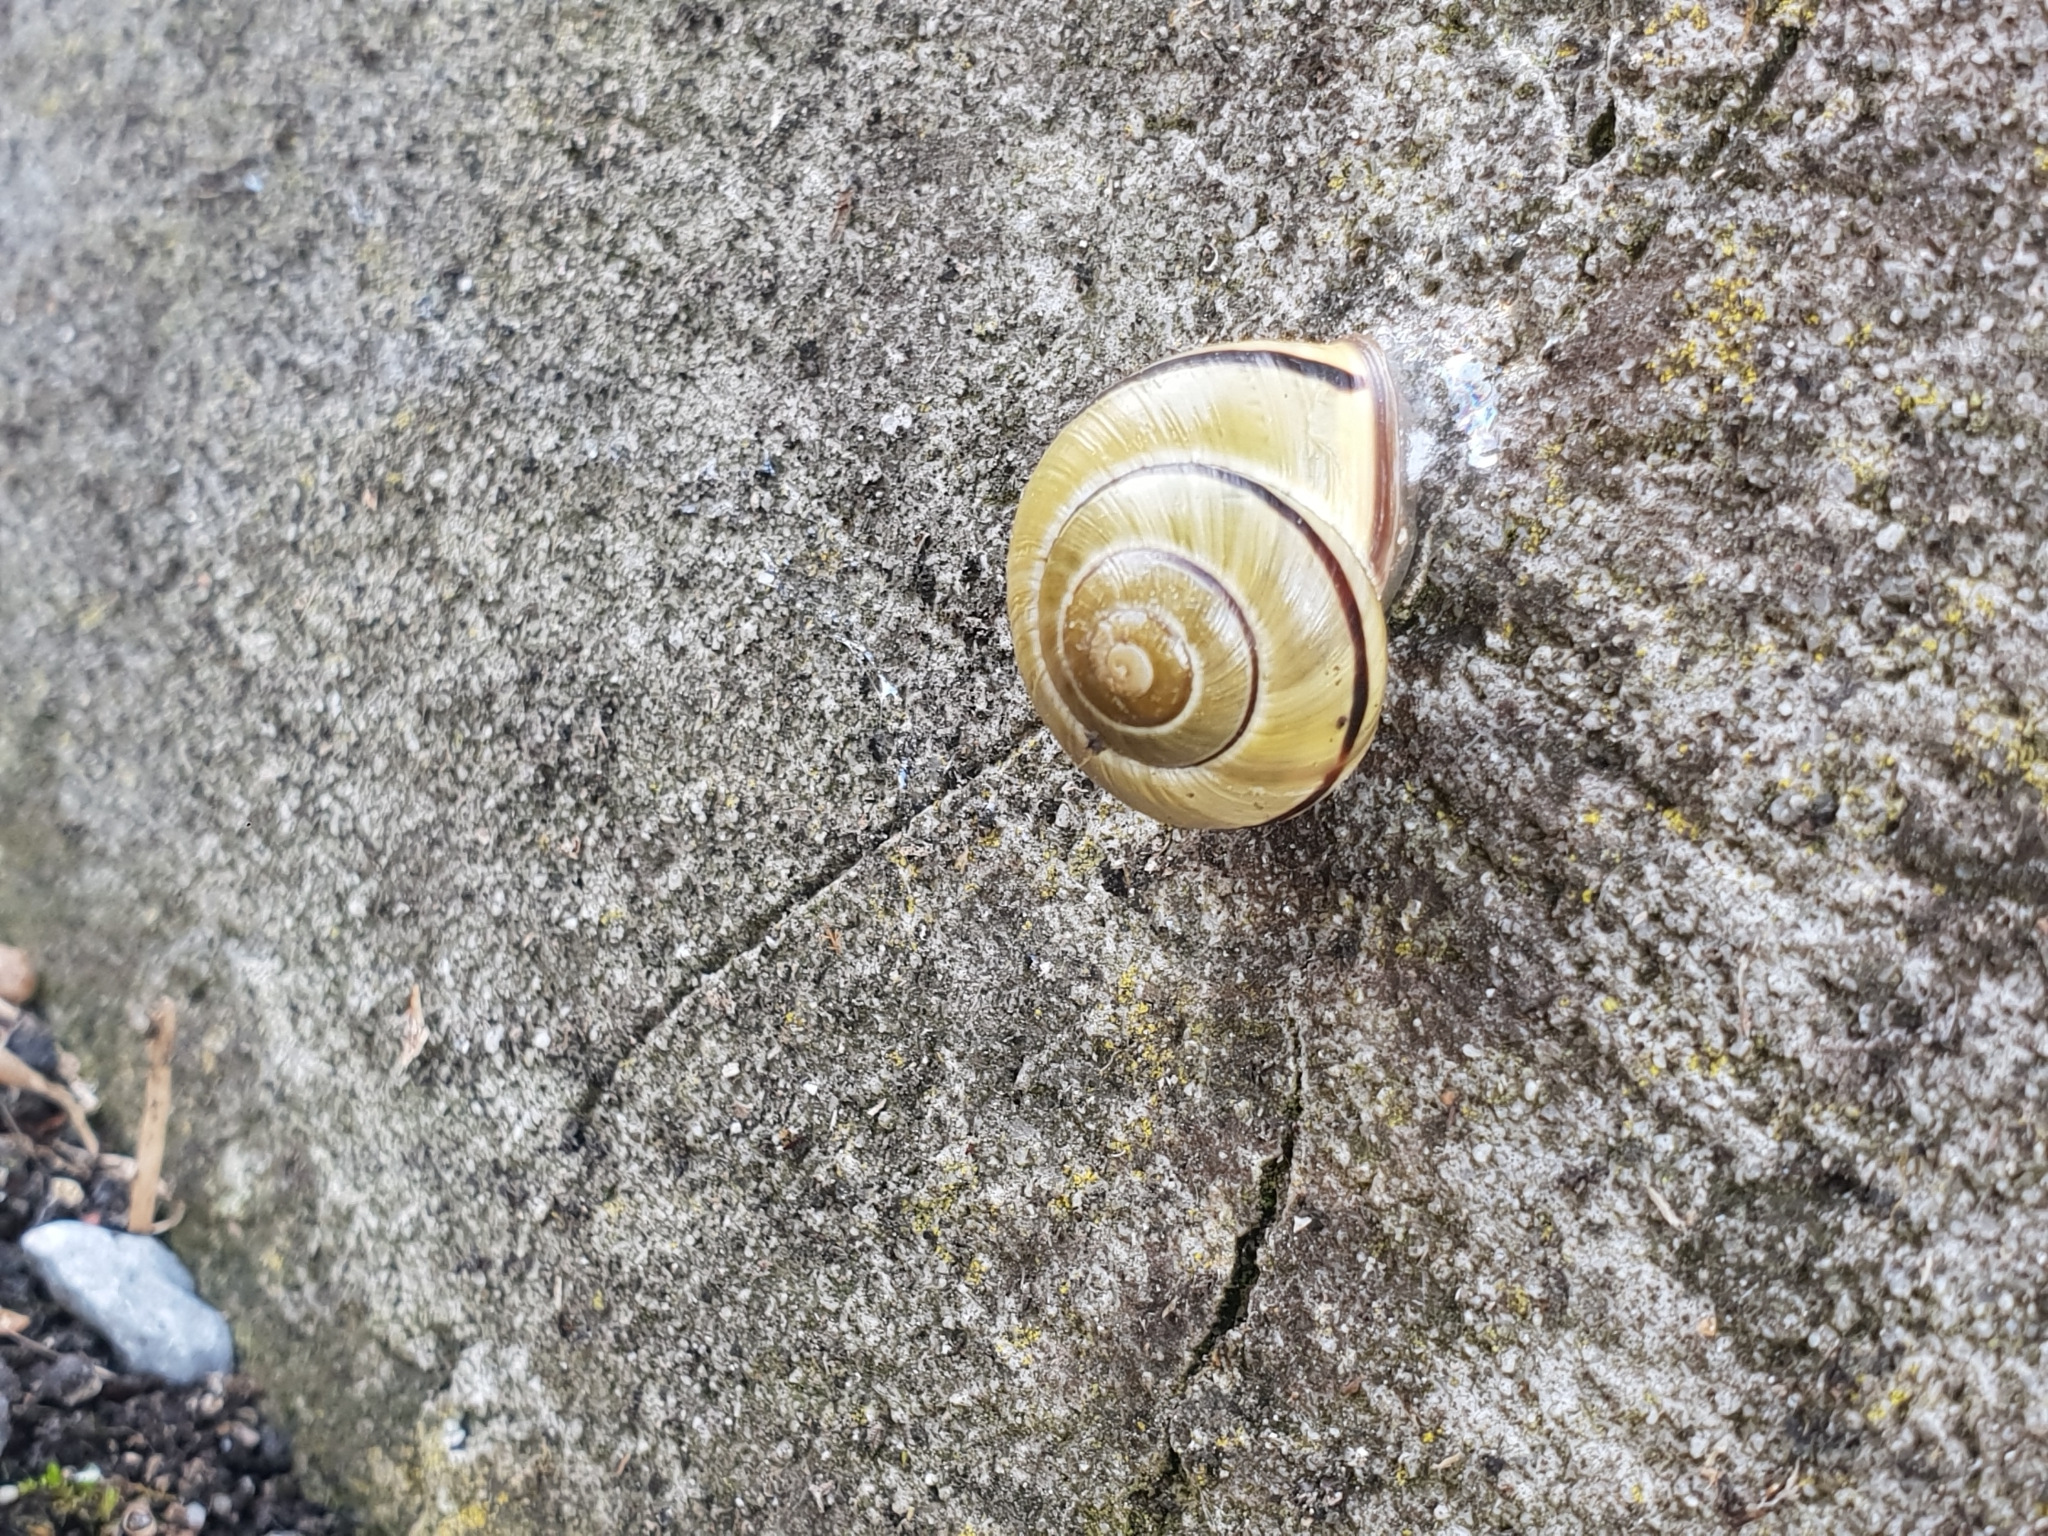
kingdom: Animalia
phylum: Mollusca
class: Gastropoda
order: Stylommatophora
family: Helicidae
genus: Cepaea
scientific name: Cepaea nemoralis
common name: Grovesnail
